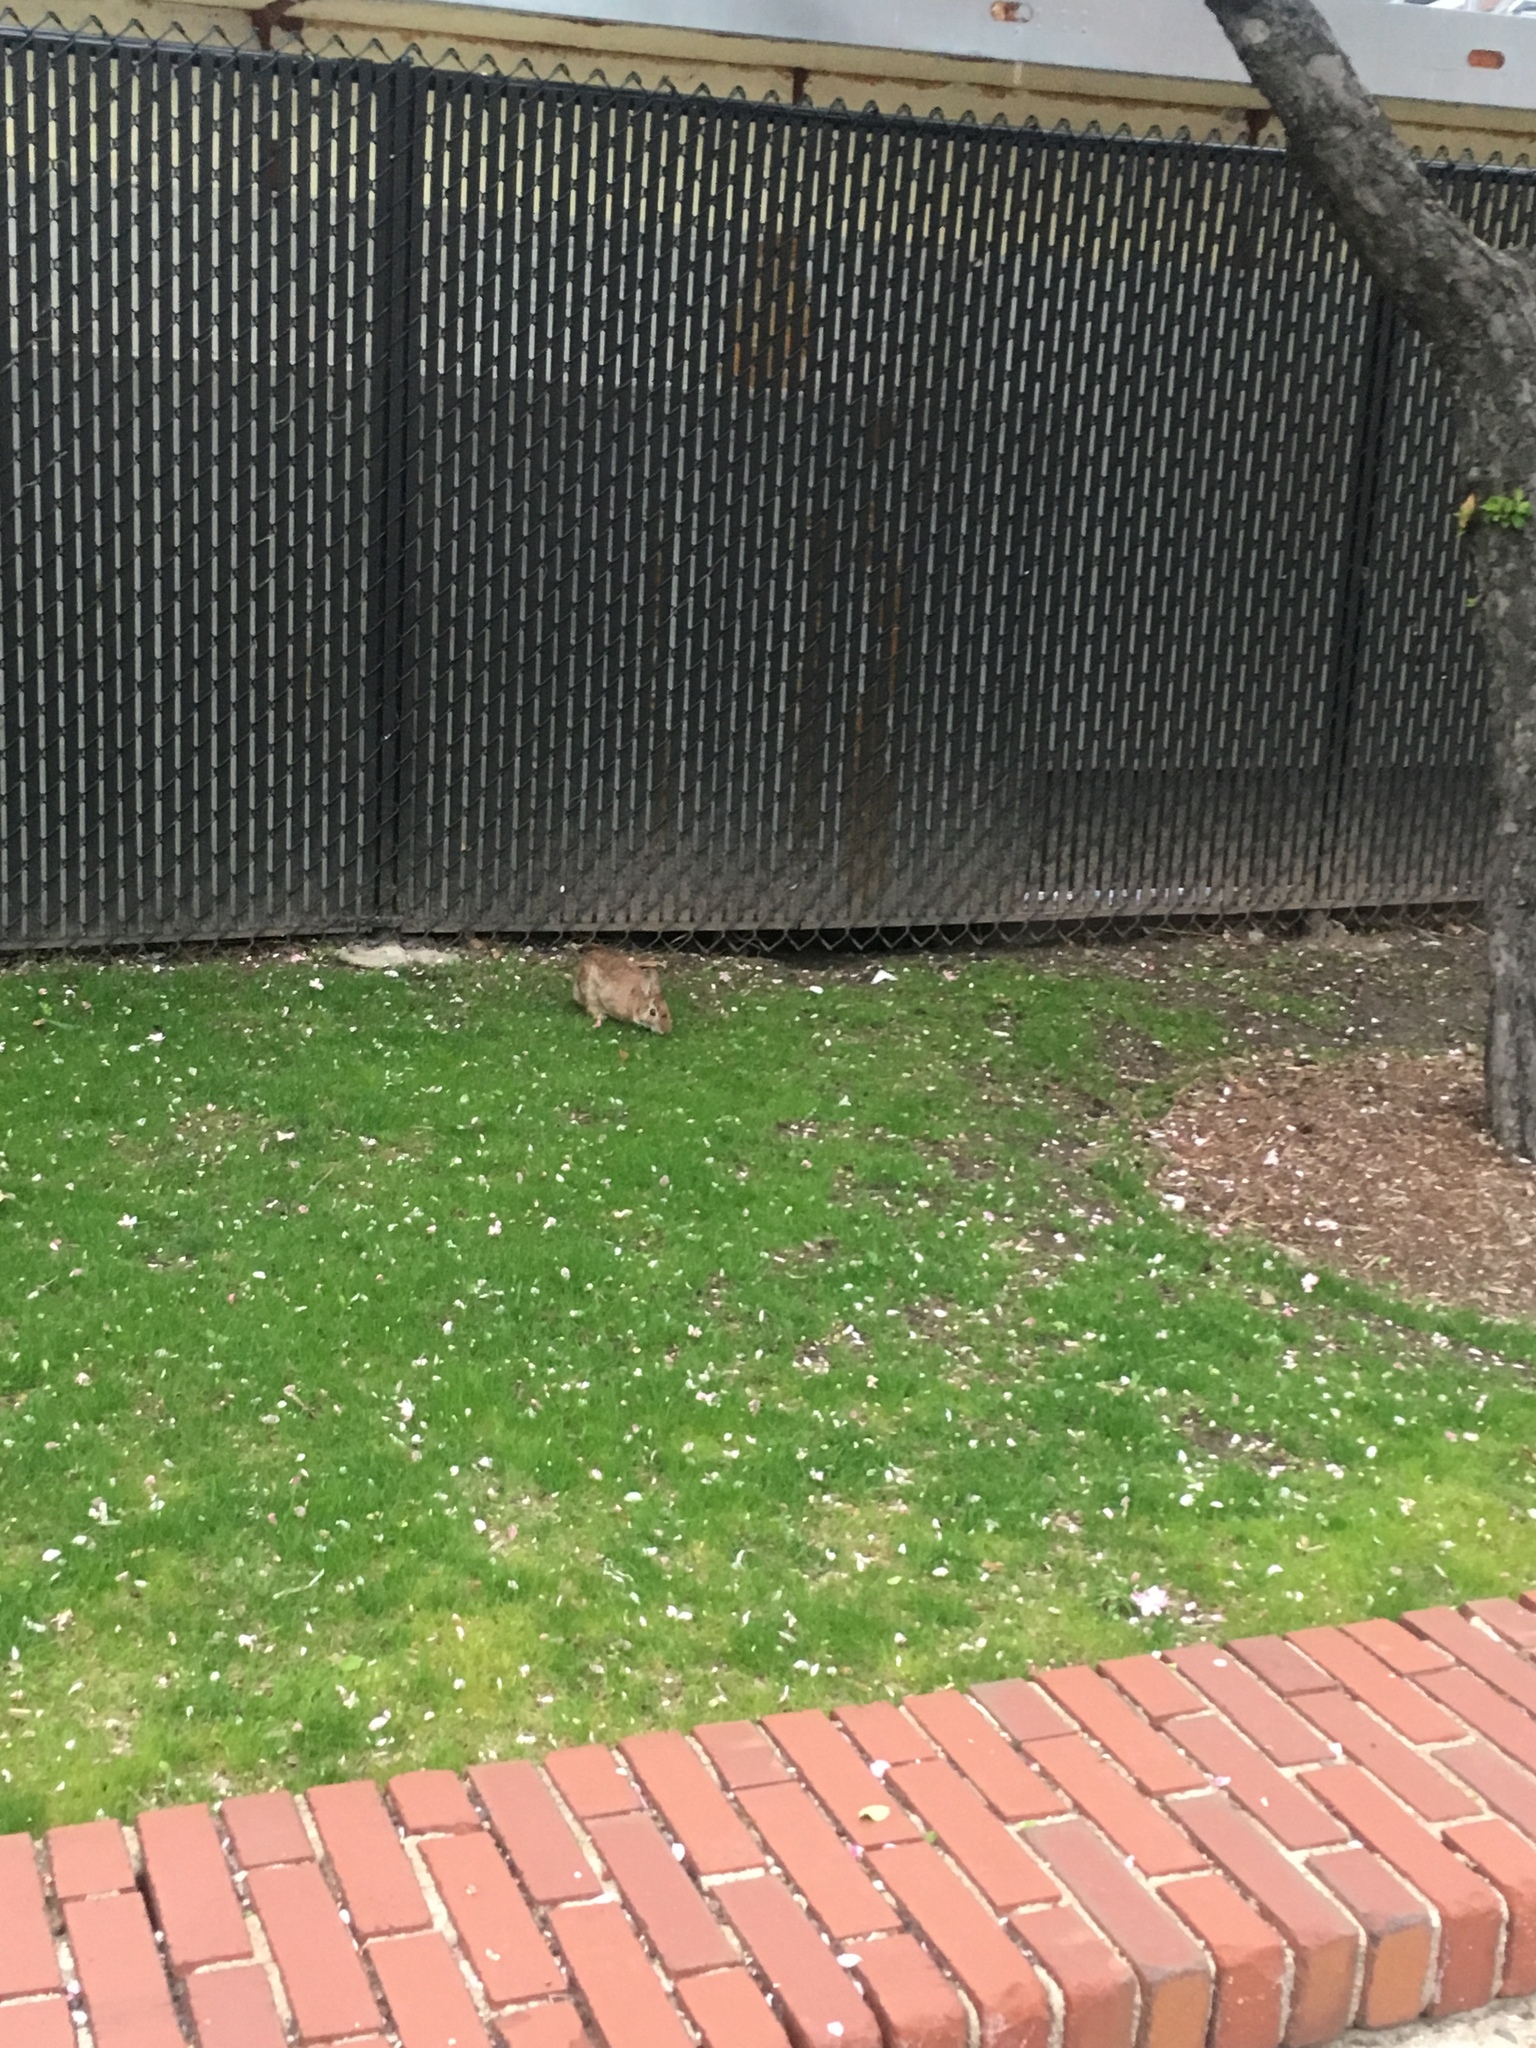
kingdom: Animalia
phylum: Chordata
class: Mammalia
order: Lagomorpha
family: Leporidae
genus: Sylvilagus
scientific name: Sylvilagus floridanus
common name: Eastern cottontail
